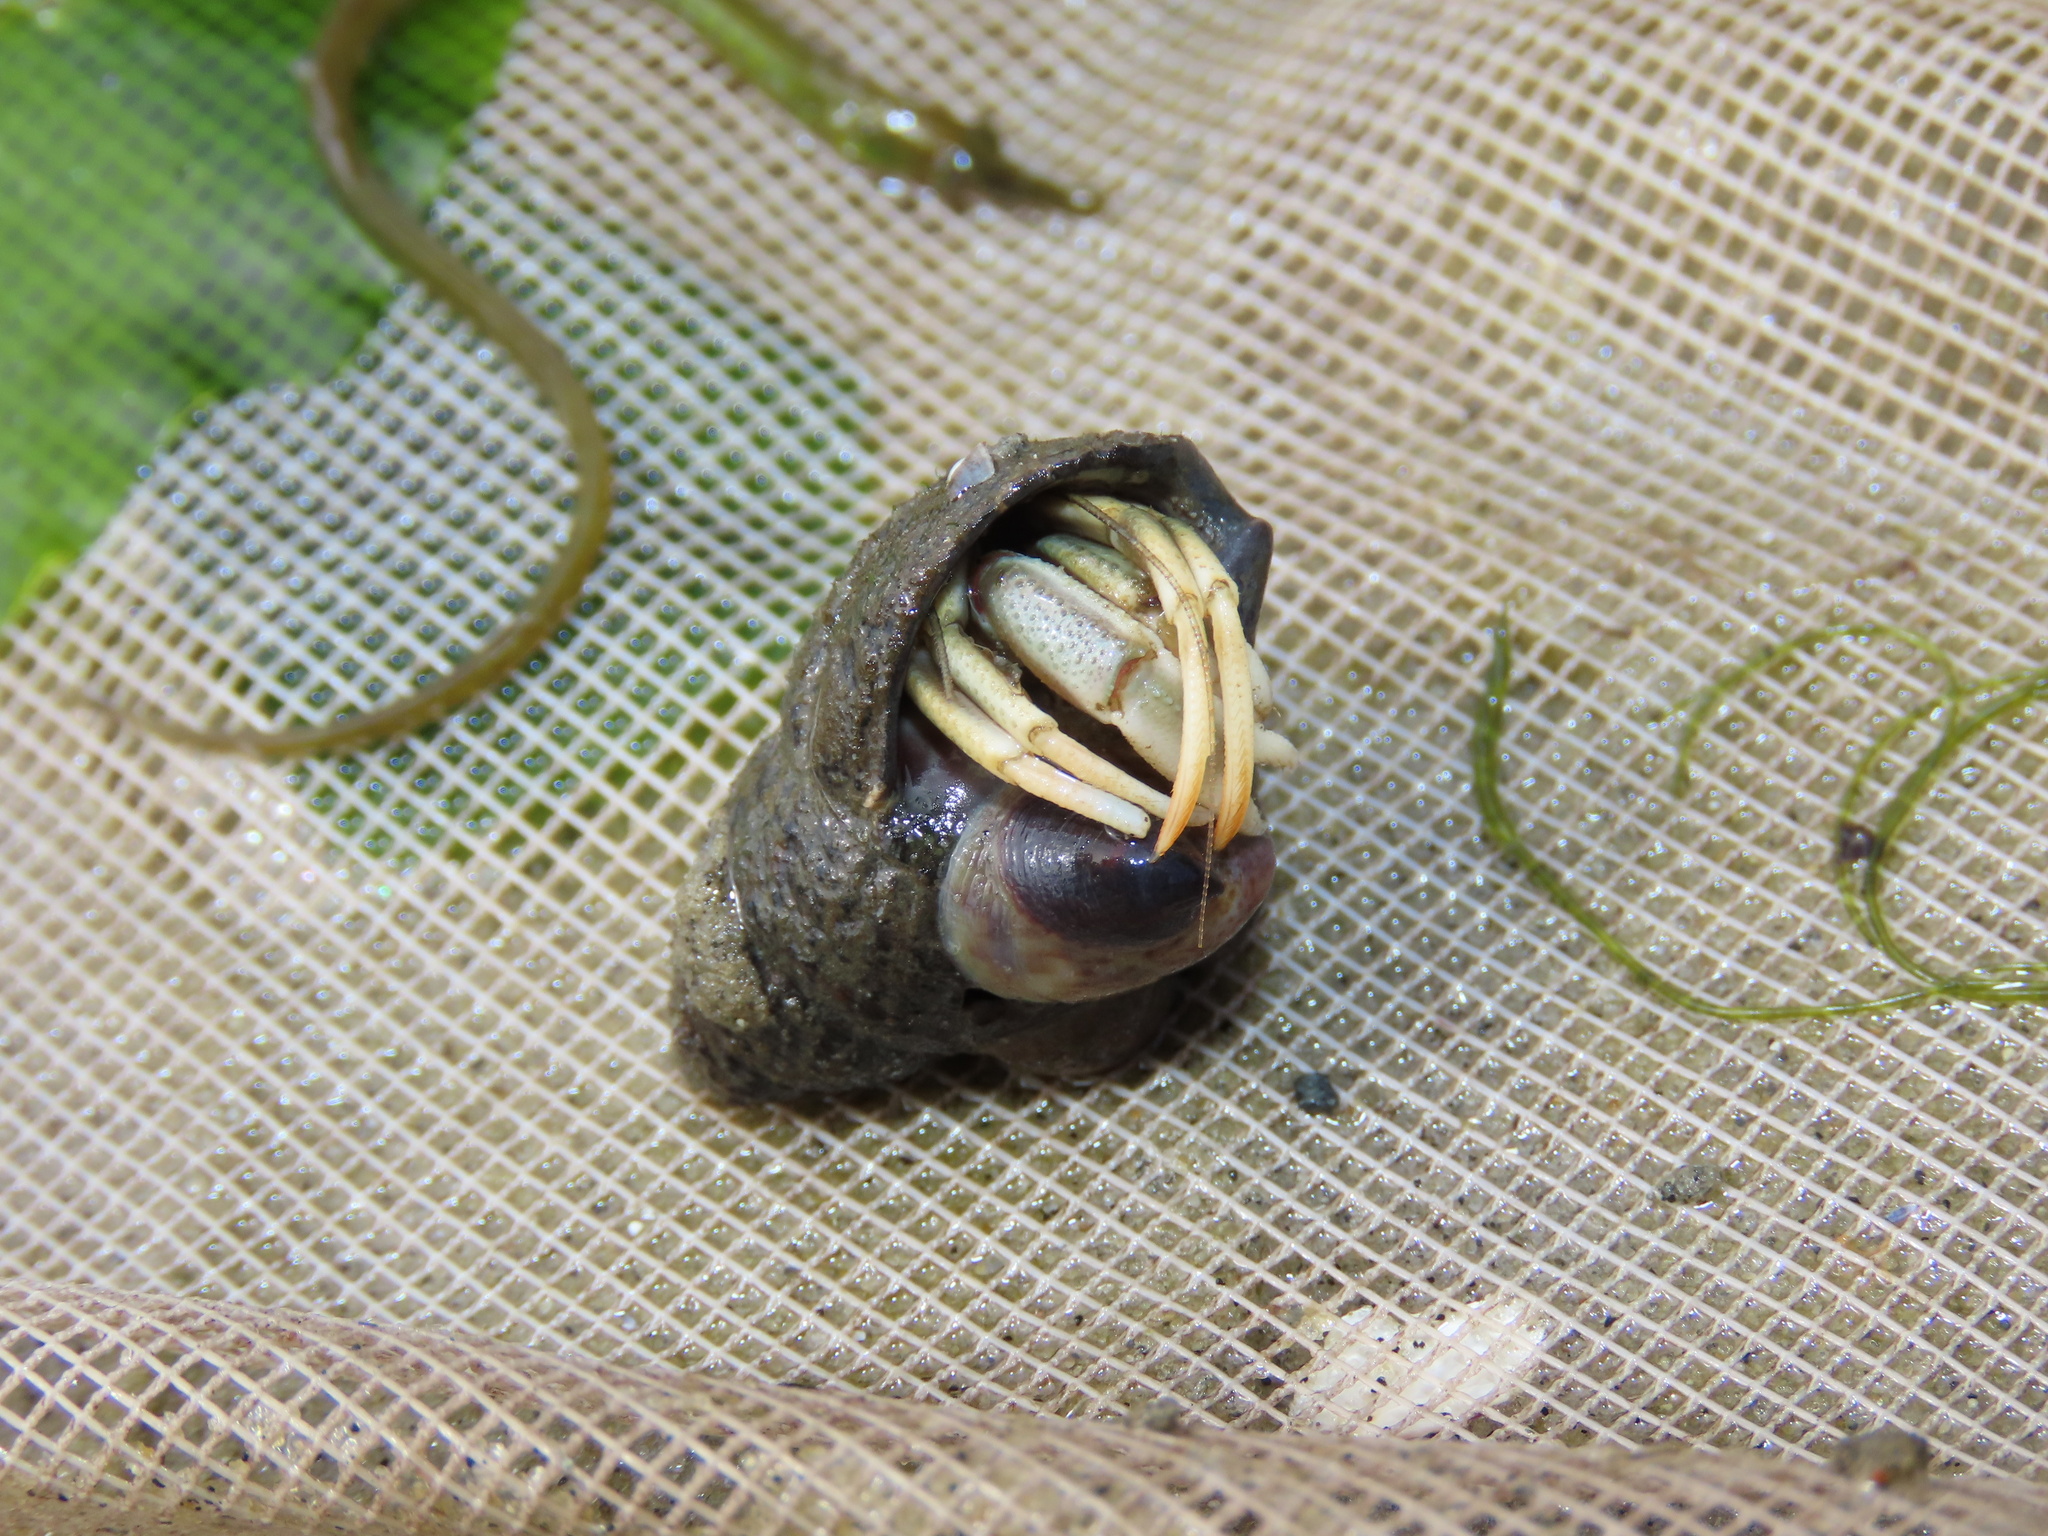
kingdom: Animalia
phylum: Arthropoda
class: Malacostraca
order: Decapoda
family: Paguridae
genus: Pagurus
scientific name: Pagurus longicarpus
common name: Long-armed hermit crab
